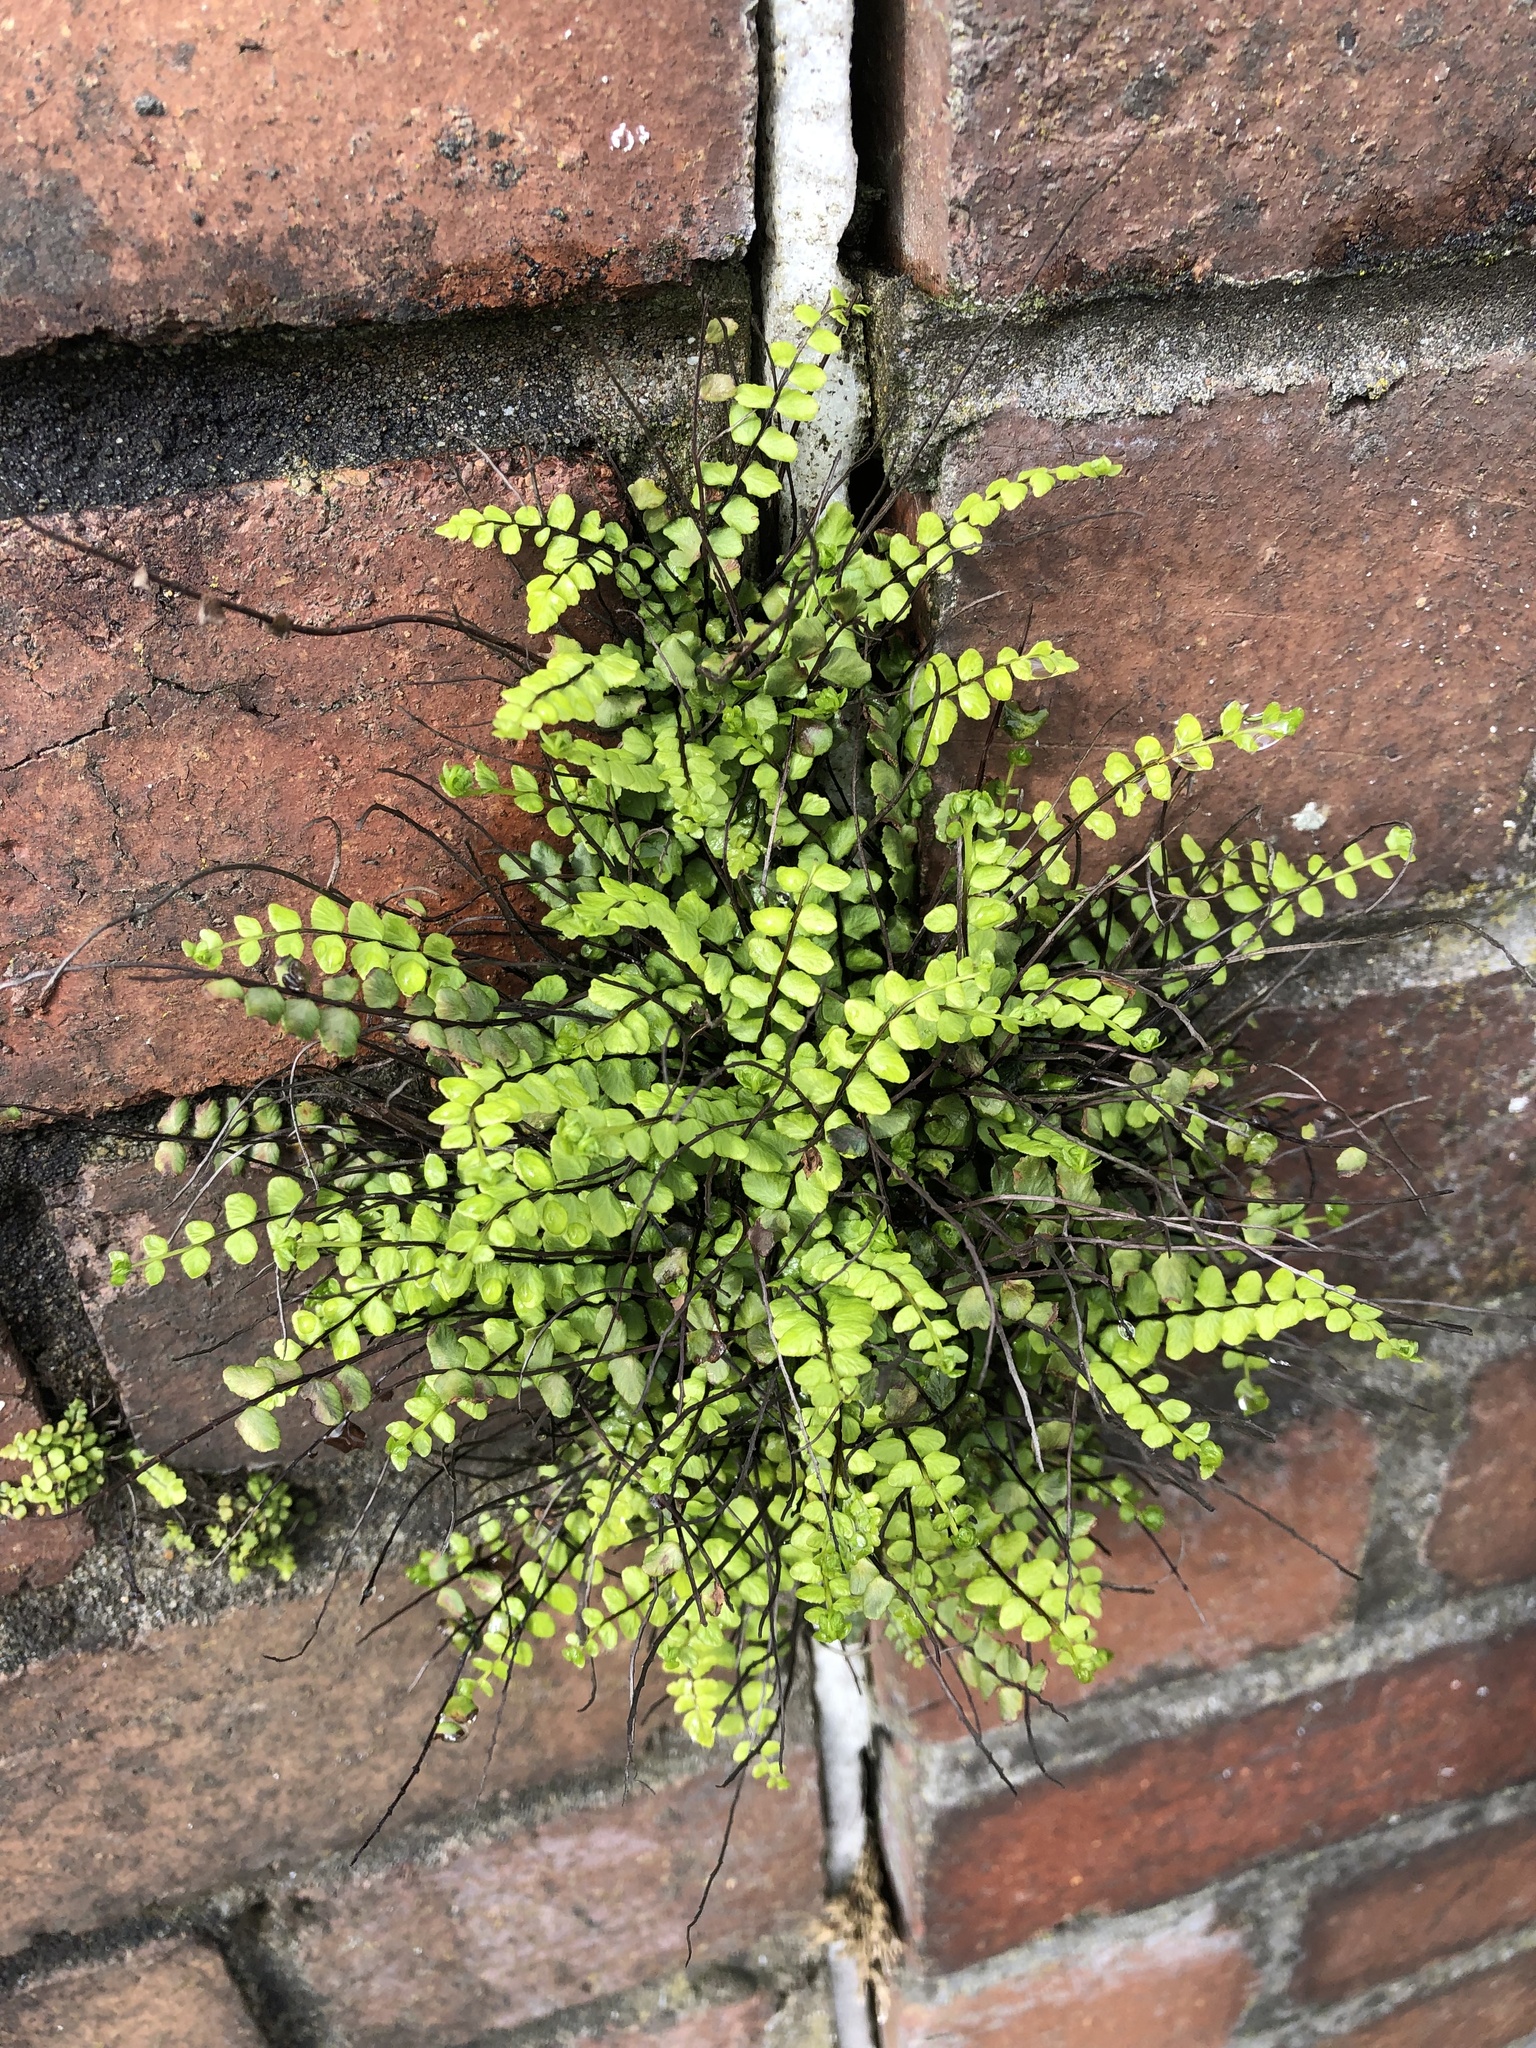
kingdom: Plantae
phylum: Tracheophyta
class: Polypodiopsida
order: Polypodiales
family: Aspleniaceae
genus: Asplenium
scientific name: Asplenium trichomanes
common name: Maidenhair spleenwort
